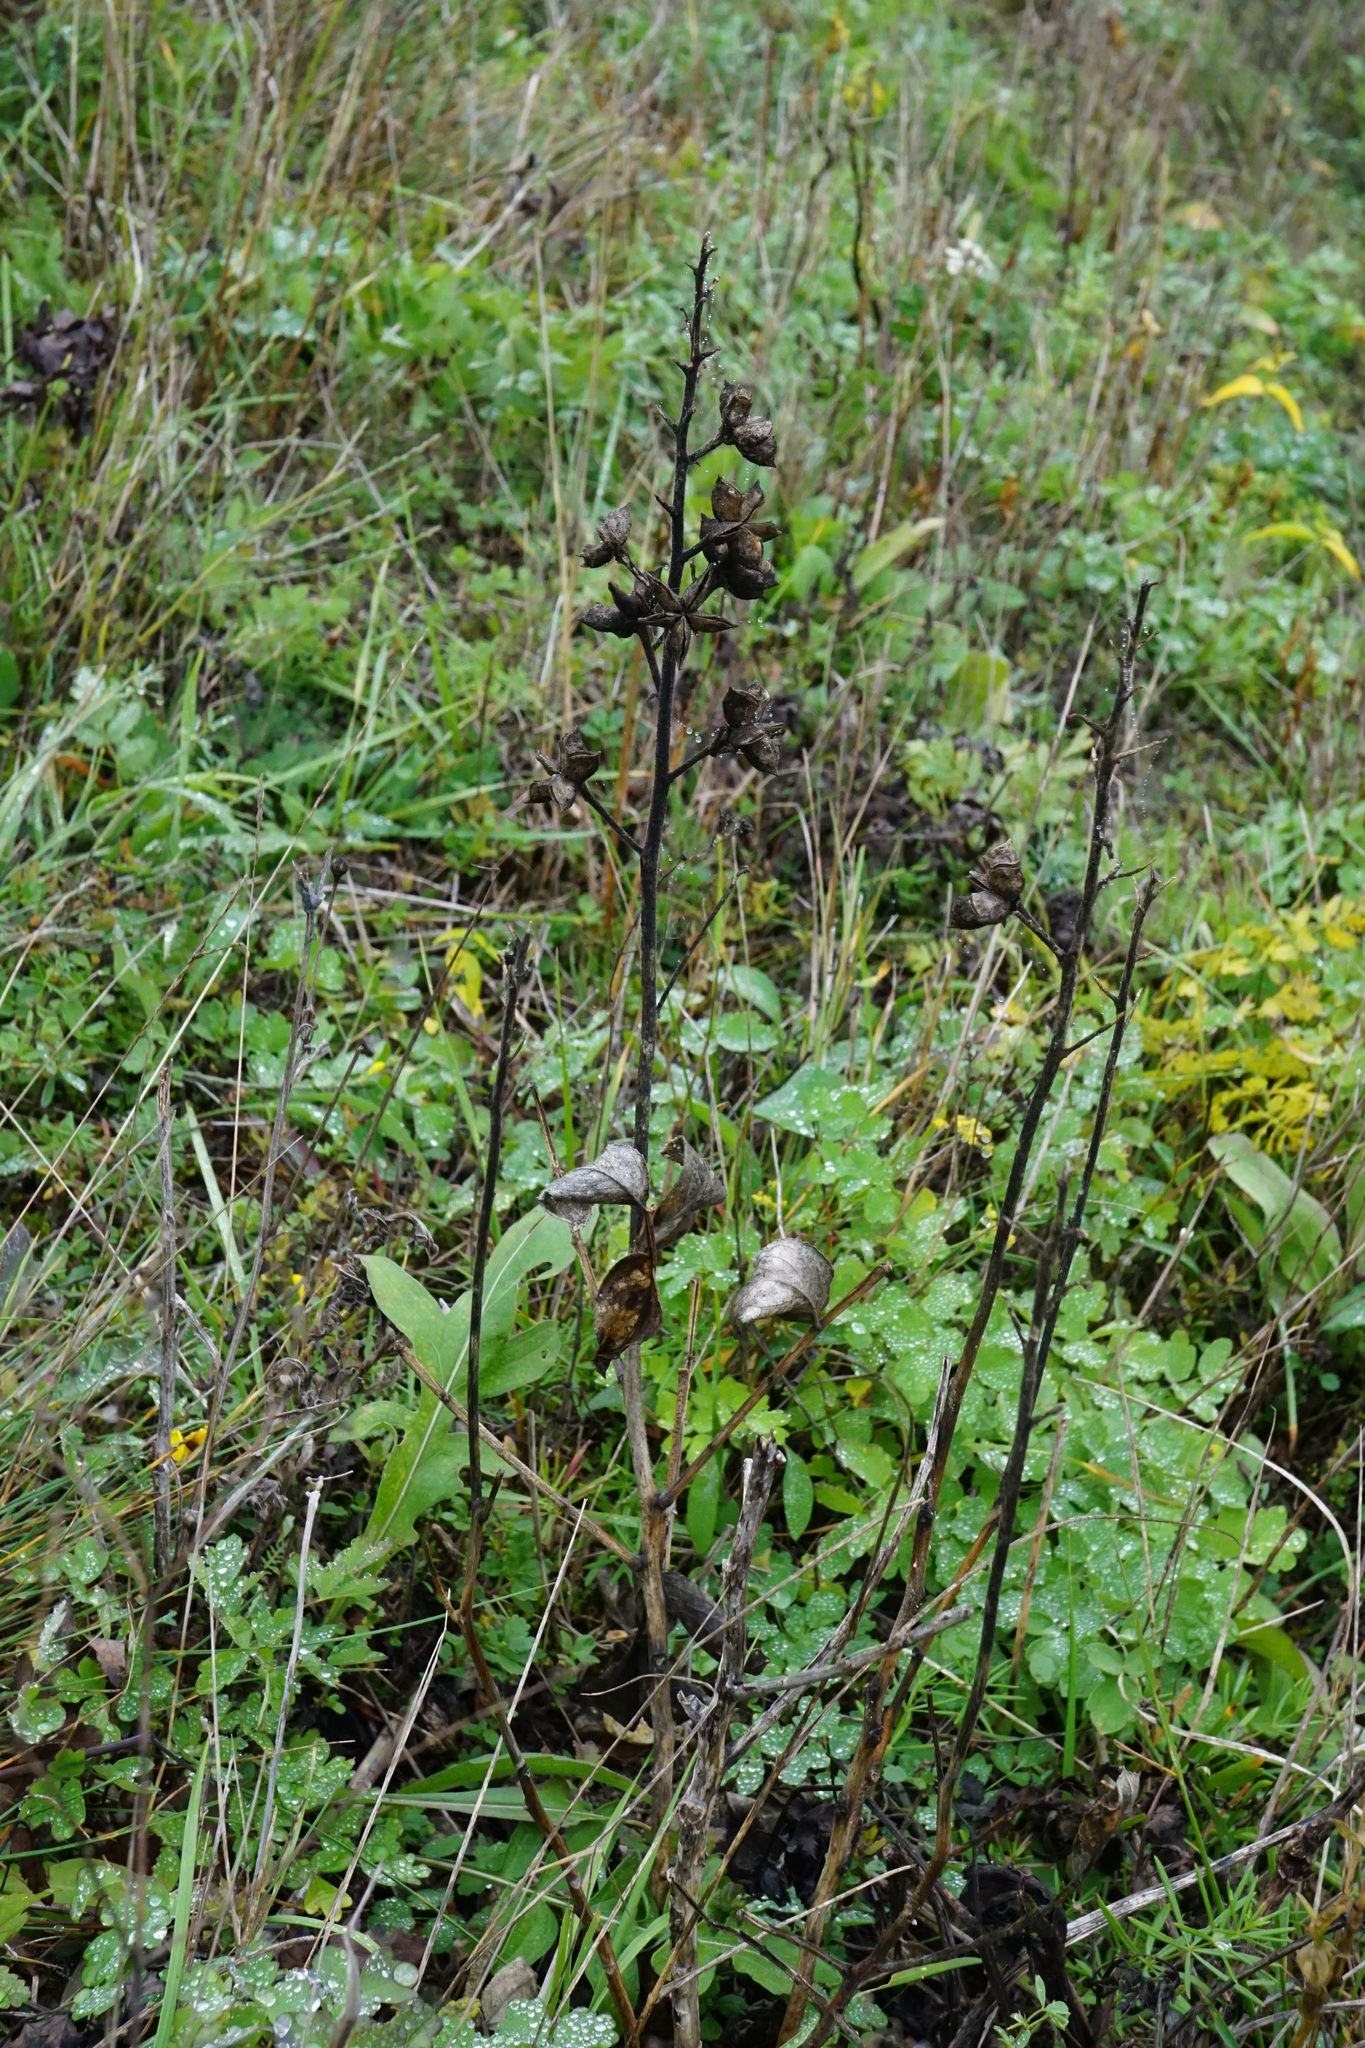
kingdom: Plantae
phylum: Tracheophyta
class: Magnoliopsida
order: Sapindales
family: Rutaceae
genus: Dictamnus
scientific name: Dictamnus albus
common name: Gasplant
